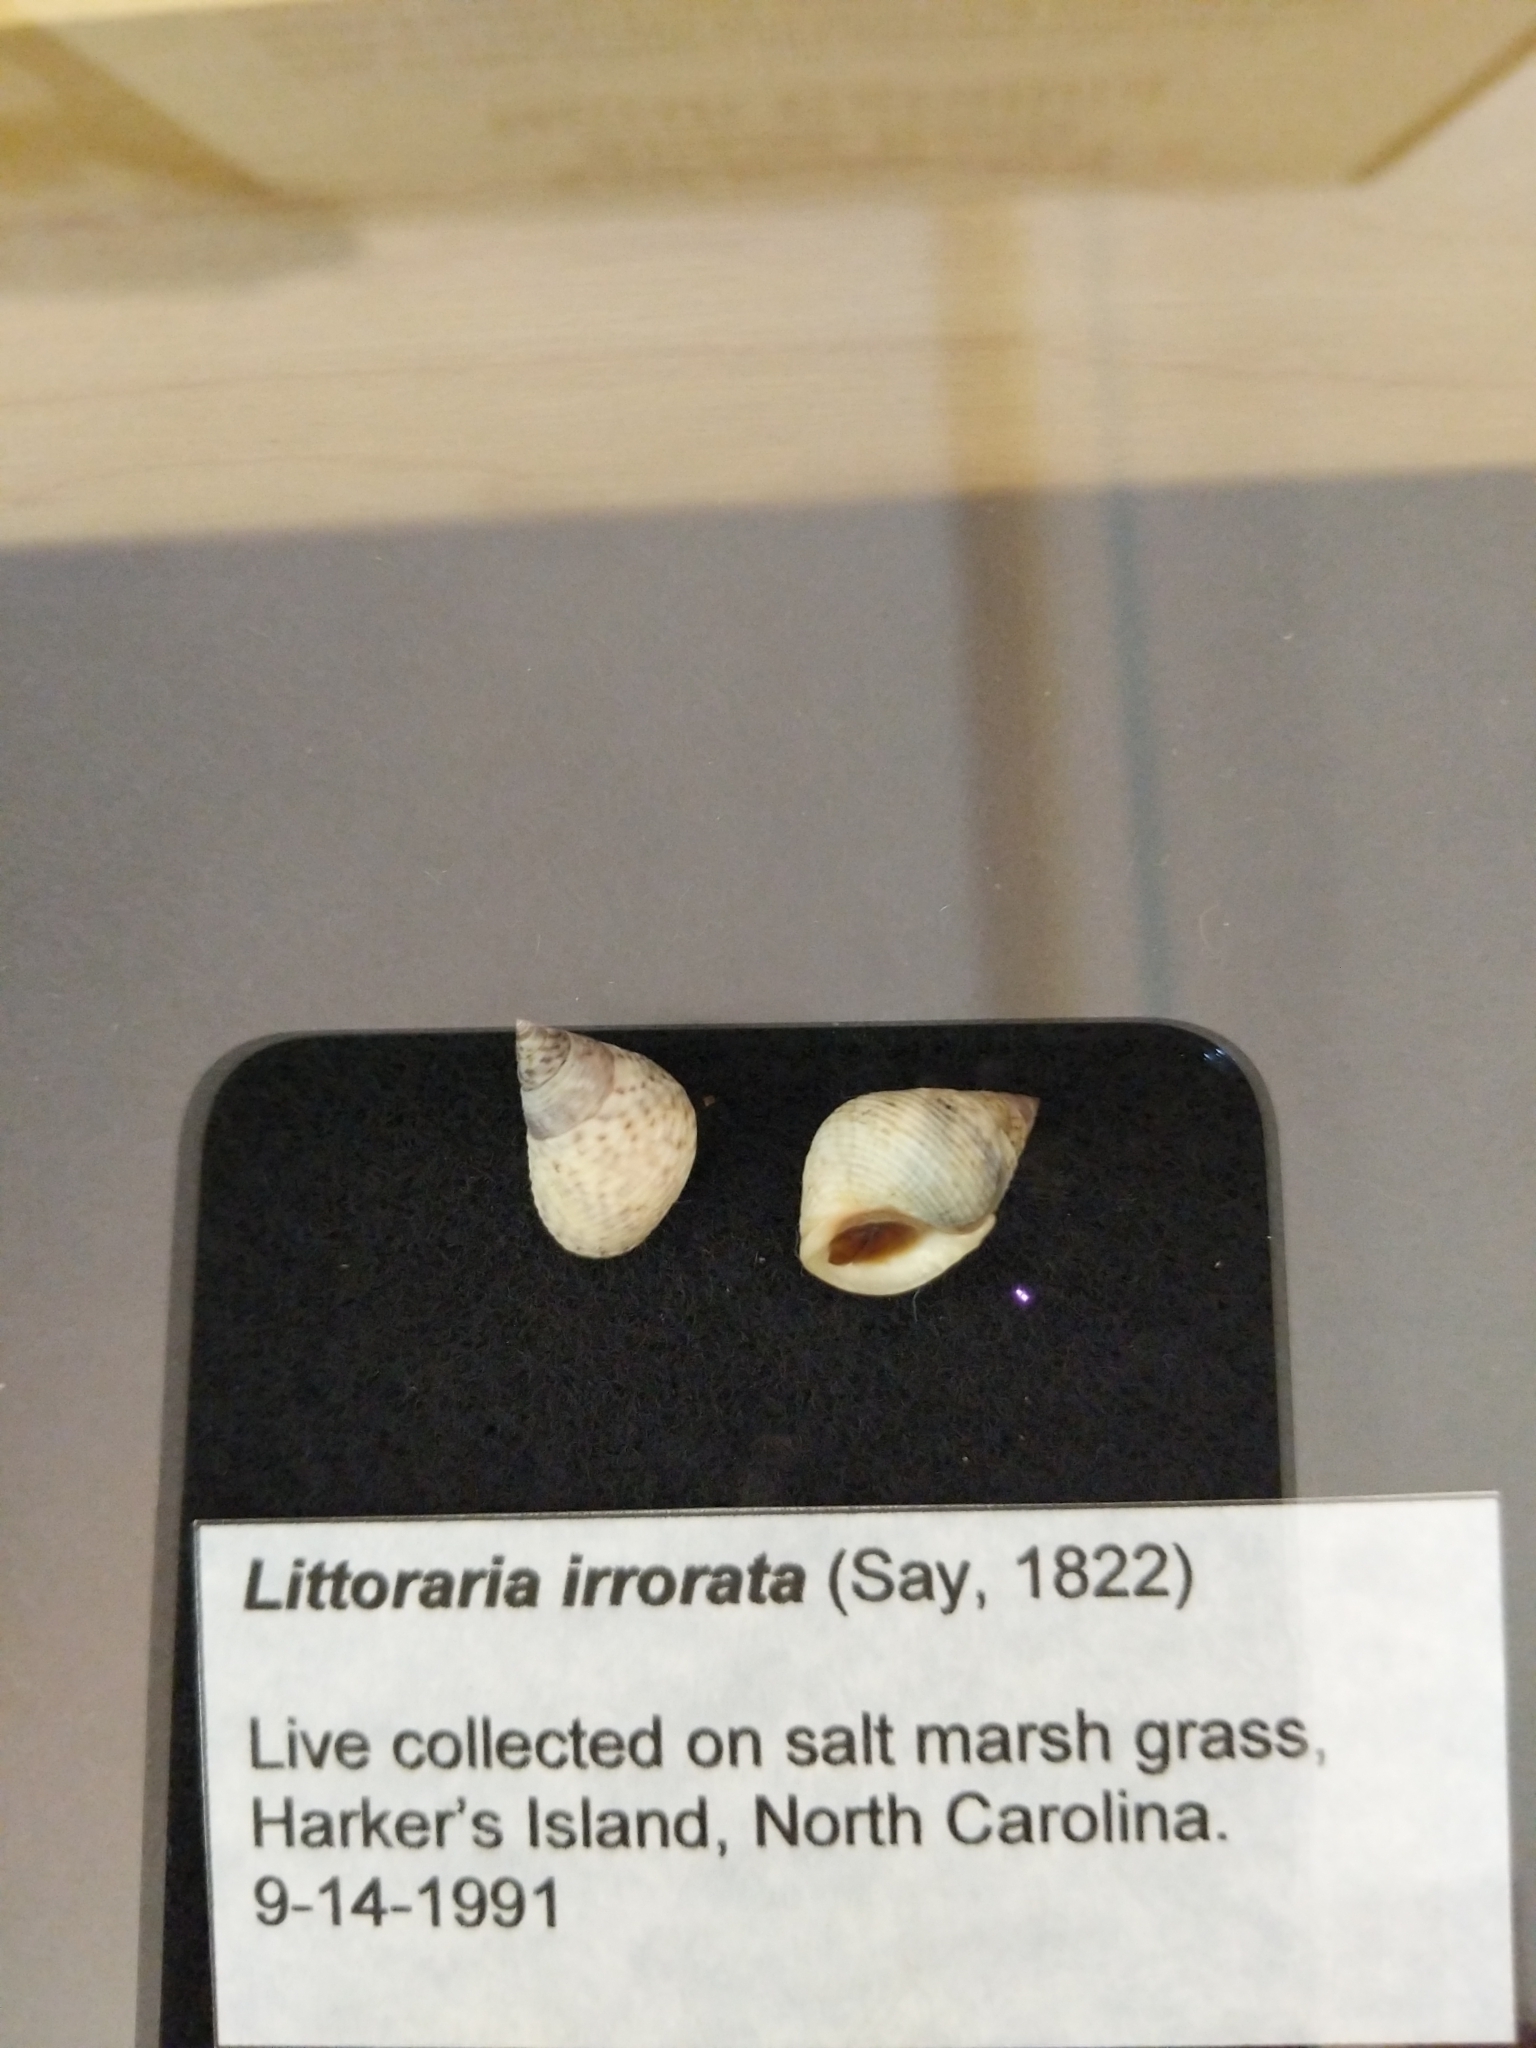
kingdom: Animalia
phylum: Mollusca
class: Gastropoda
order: Littorinimorpha
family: Littorinidae
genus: Littoraria
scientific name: Littoraria irrorata
